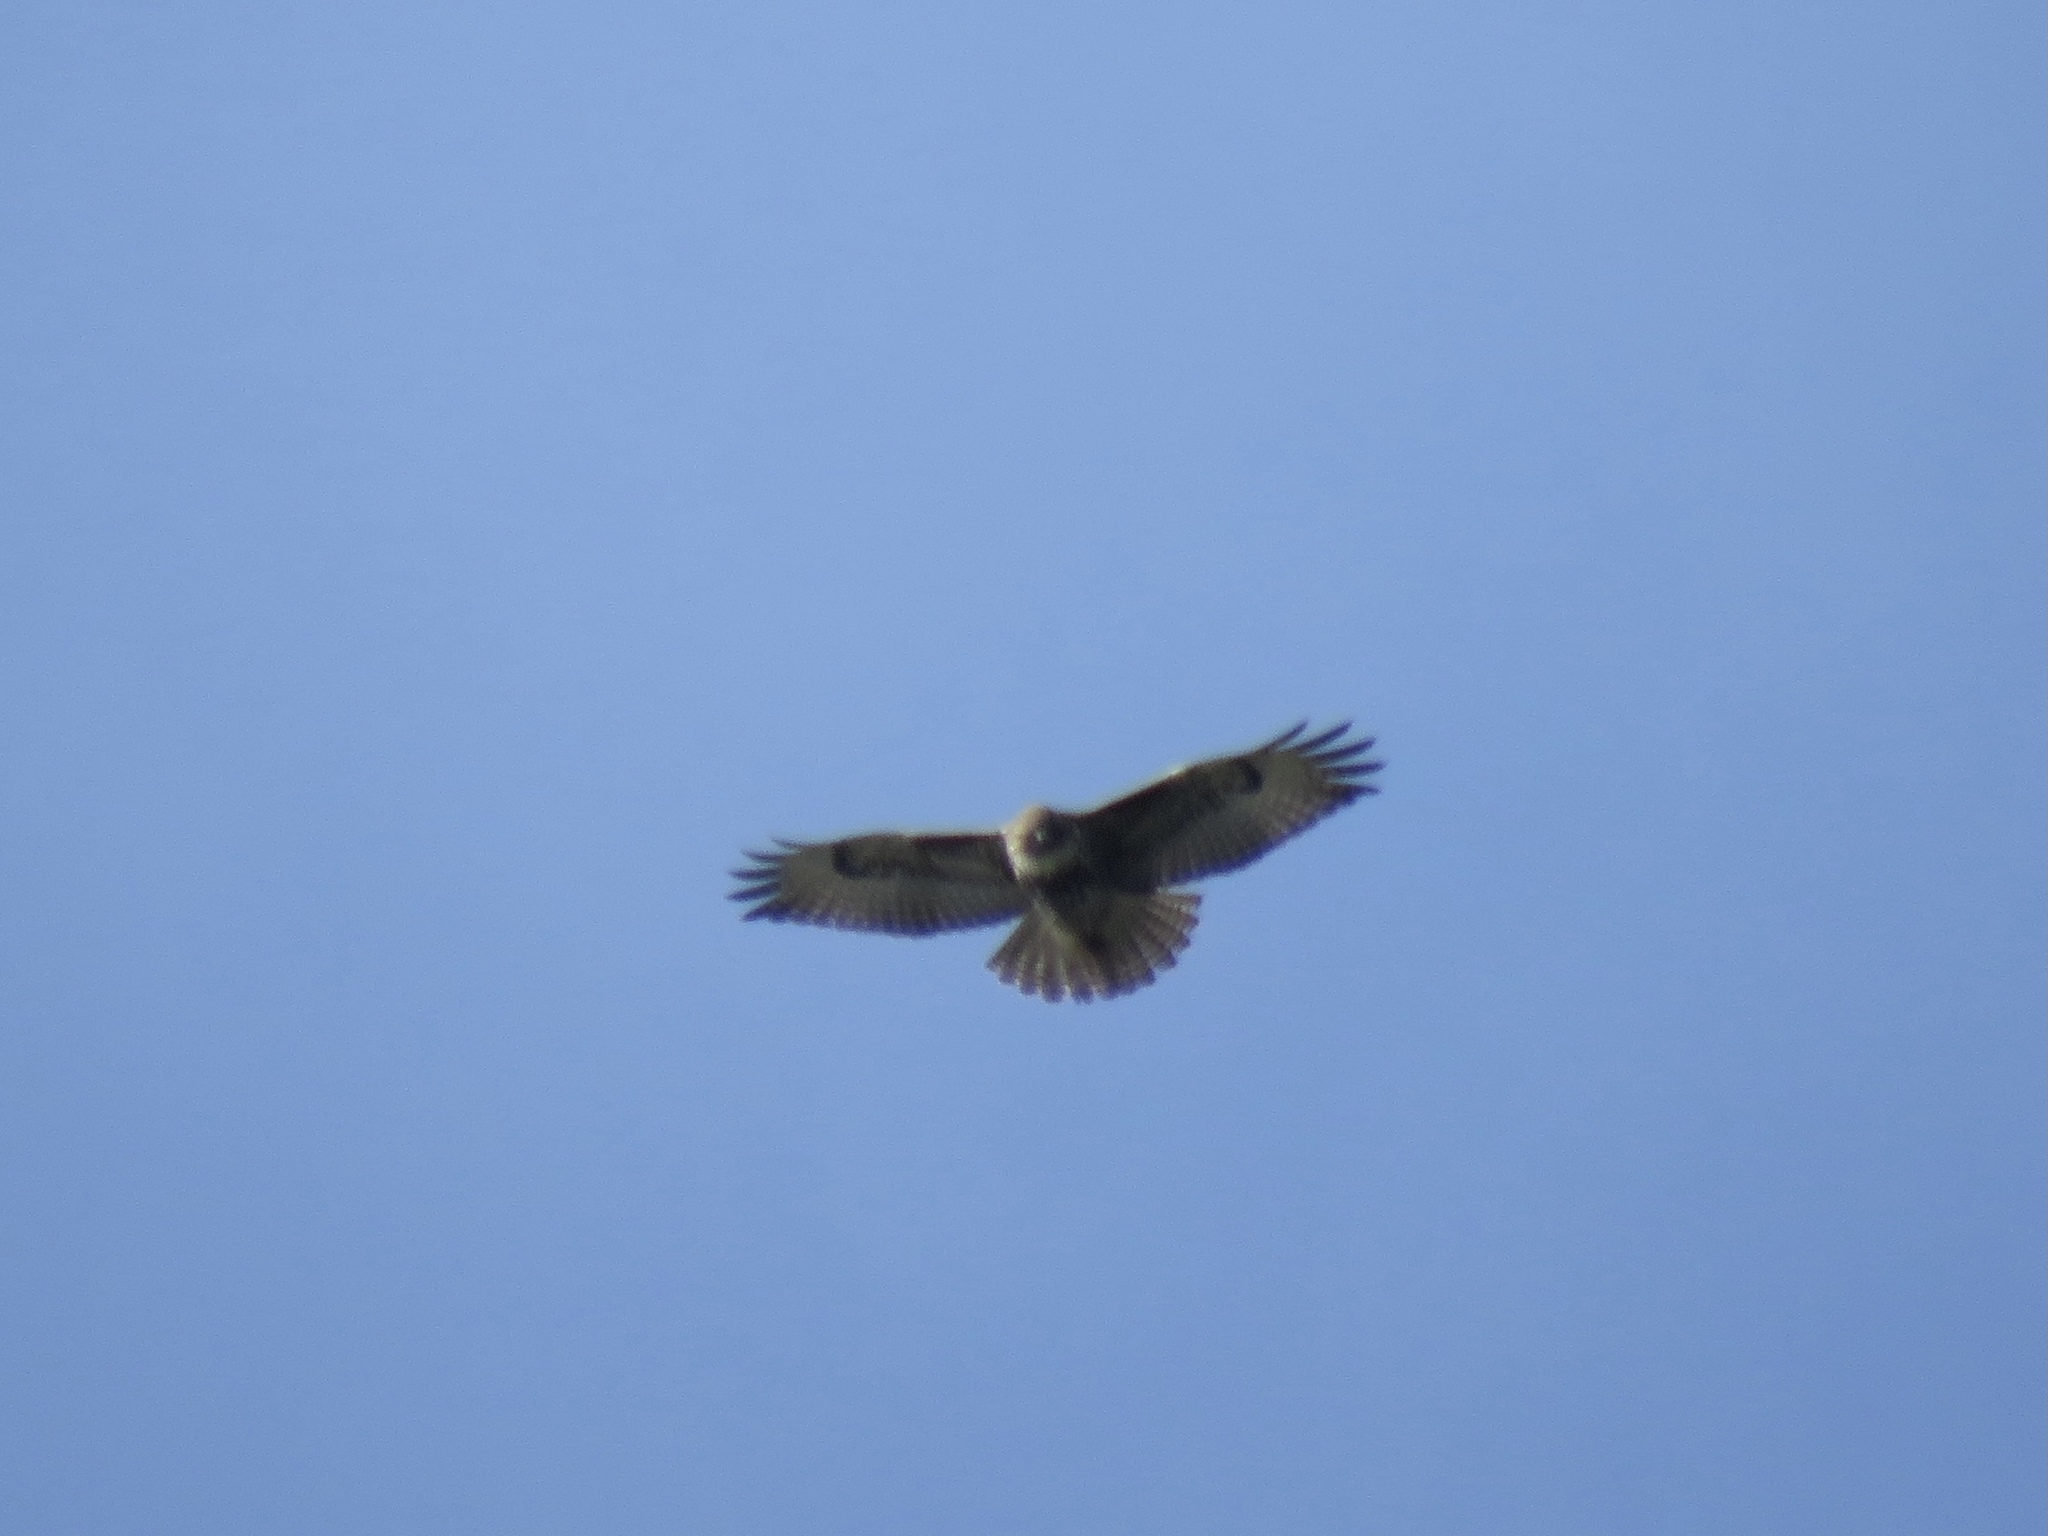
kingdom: Animalia
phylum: Chordata
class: Aves
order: Accipitriformes
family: Accipitridae
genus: Buteo
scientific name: Buteo jamaicensis
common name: Red-tailed hawk
